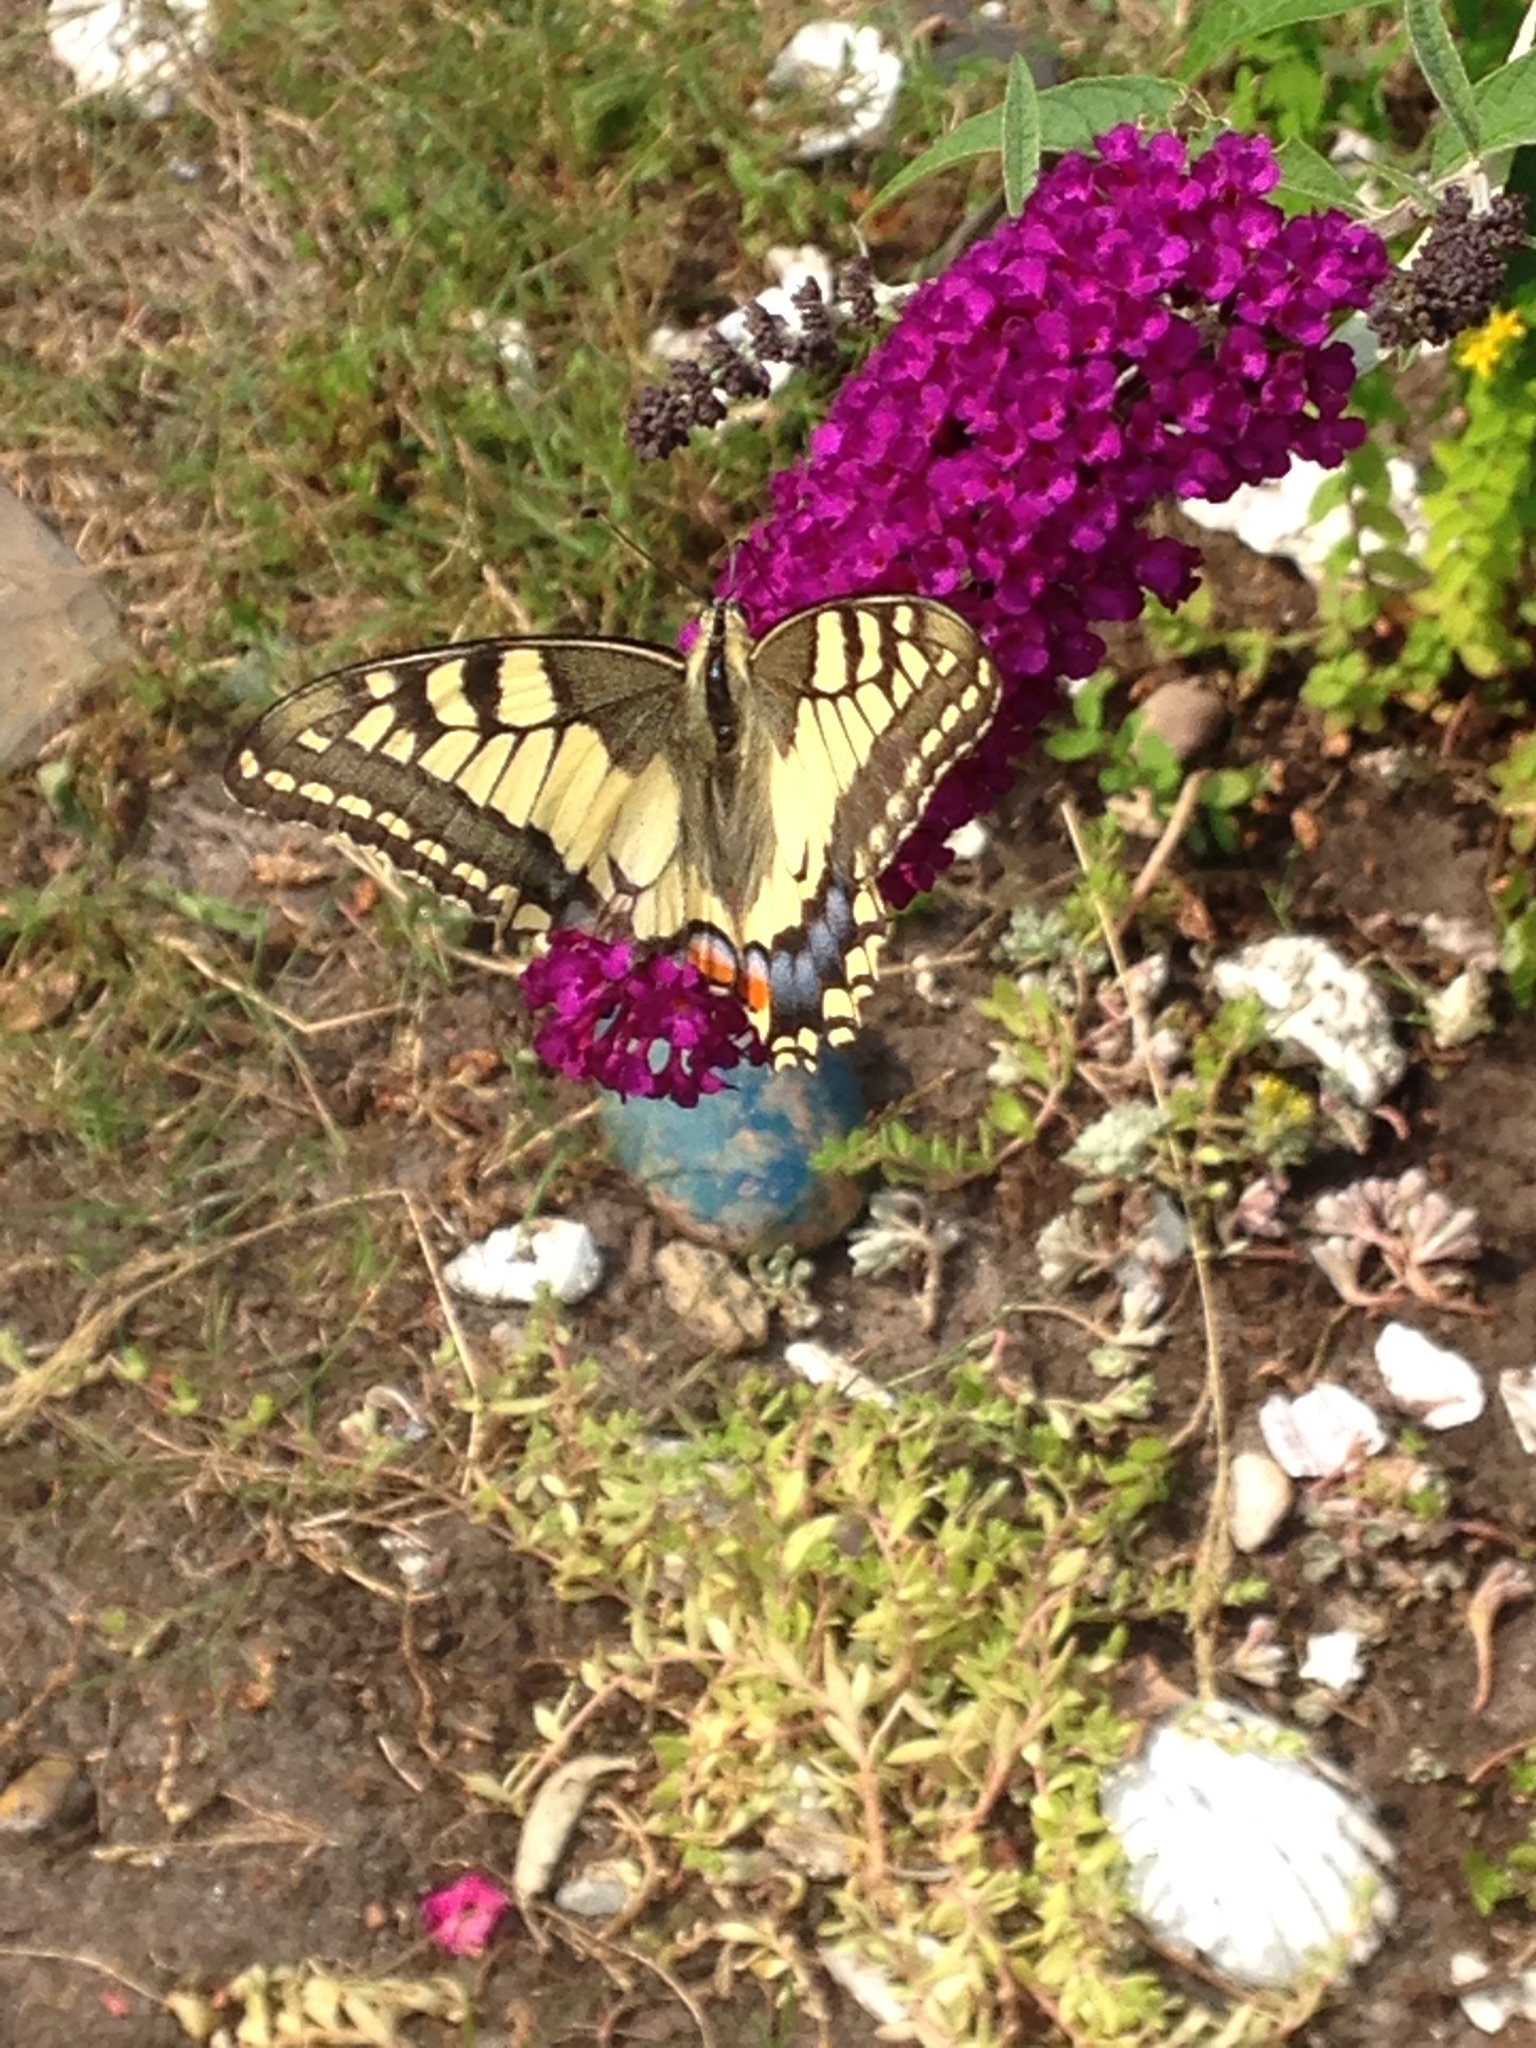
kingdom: Animalia
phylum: Arthropoda
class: Insecta
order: Lepidoptera
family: Papilionidae
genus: Papilio
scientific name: Papilio machaon
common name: Swallowtail
